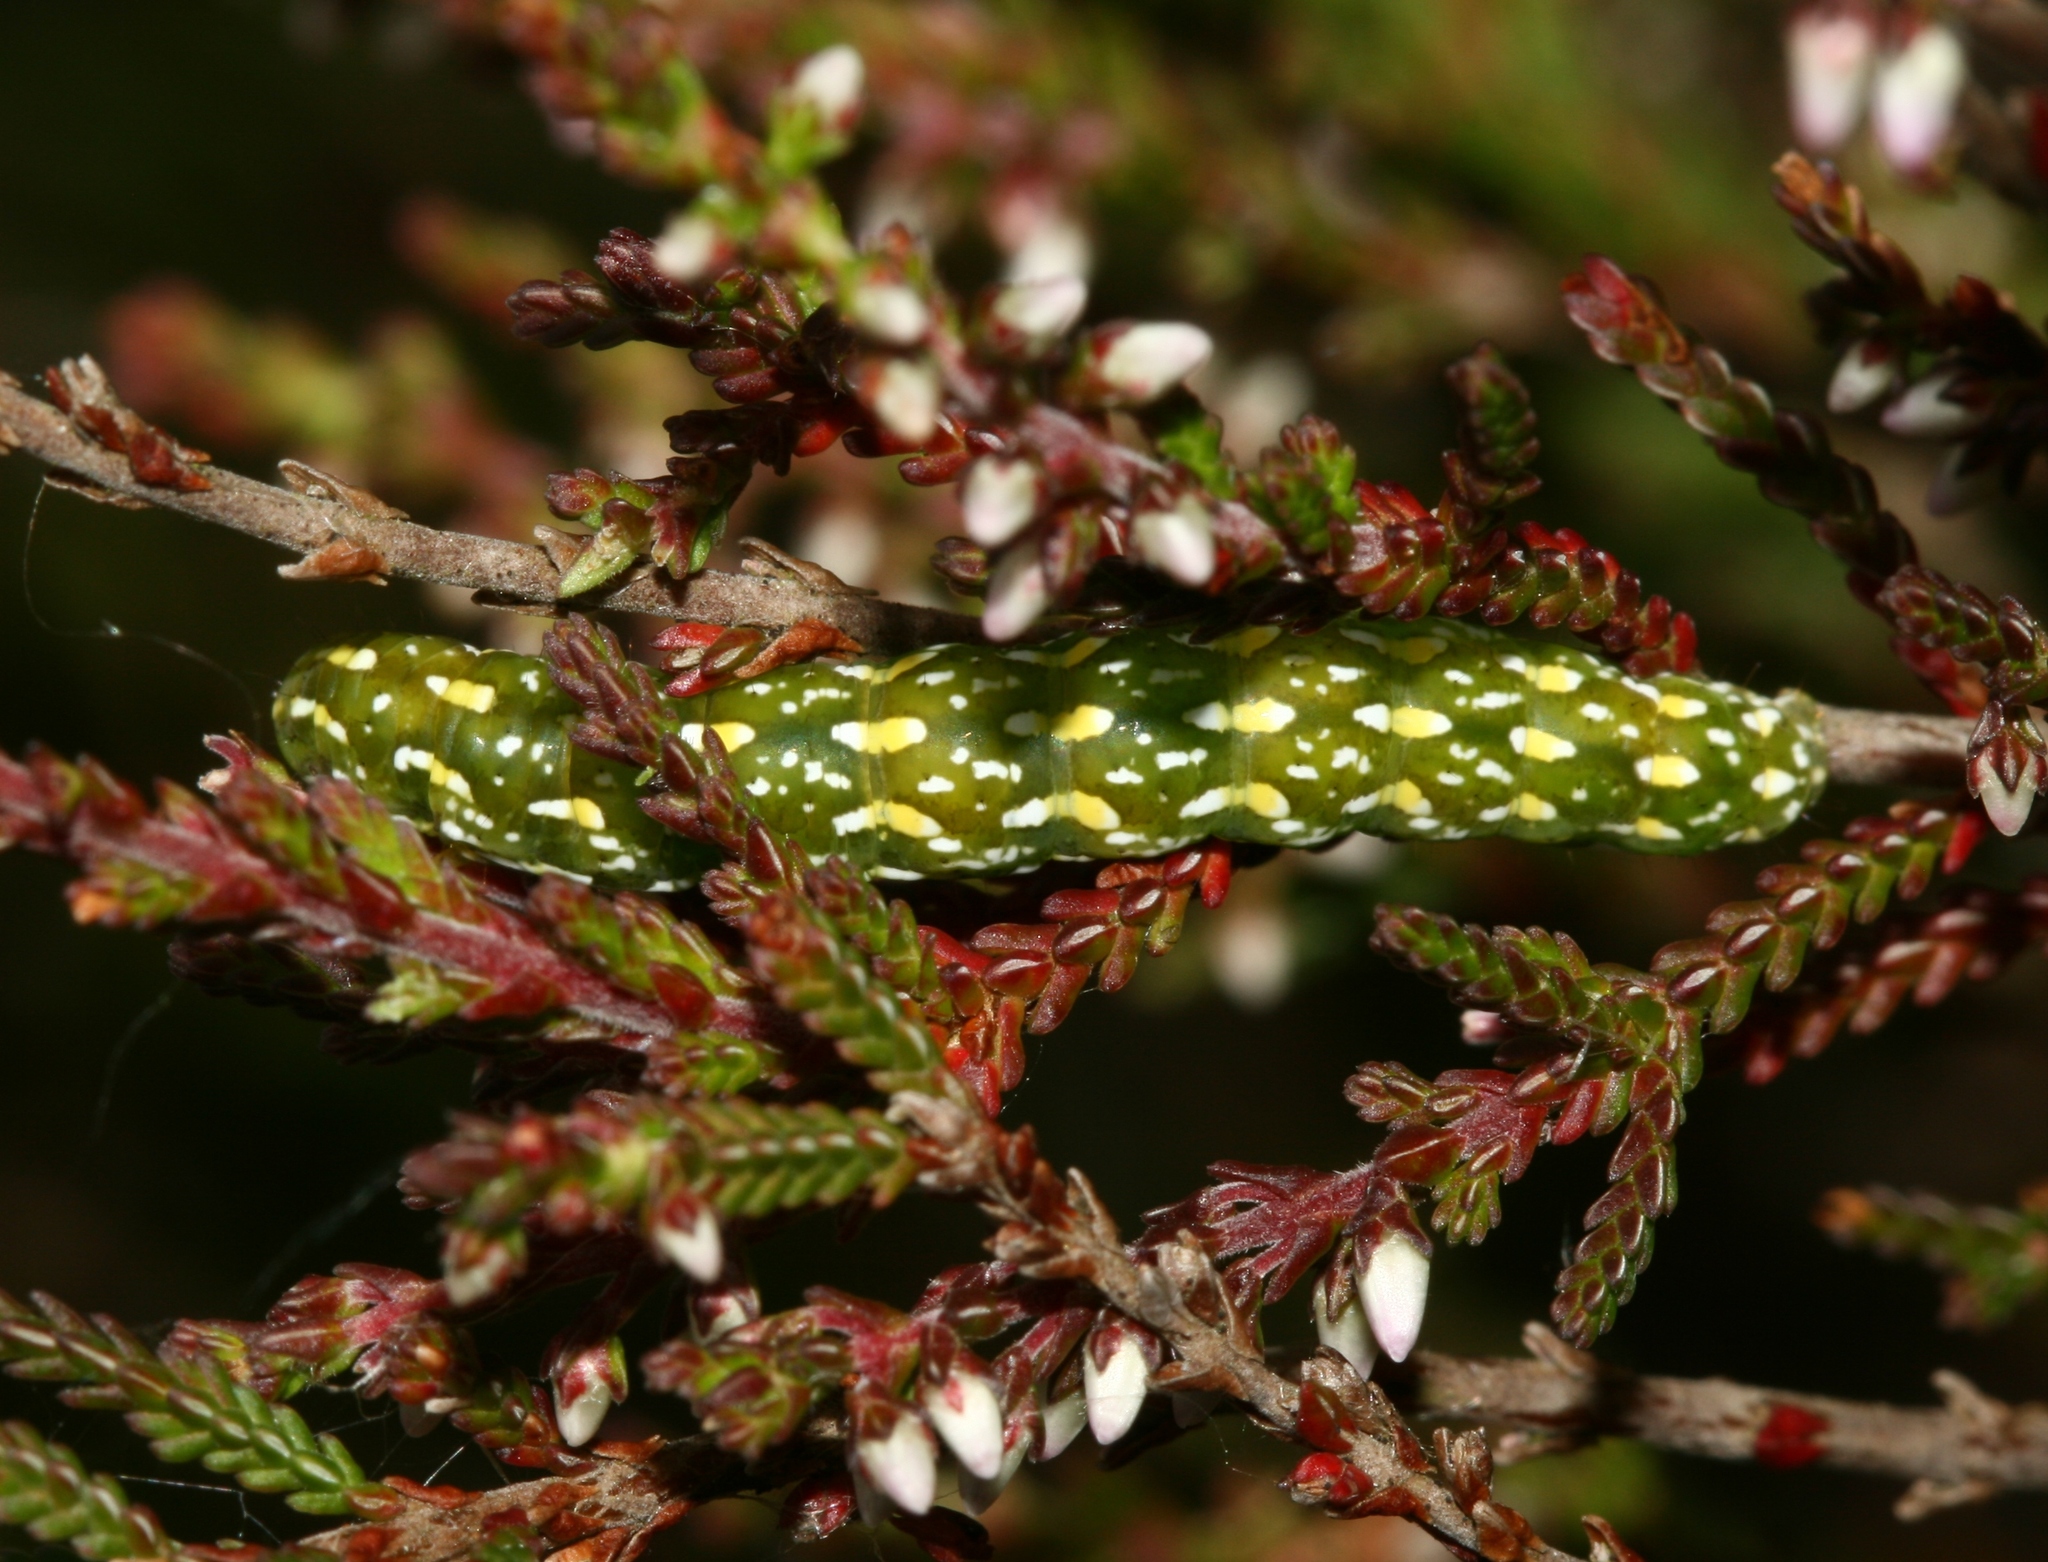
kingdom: Animalia
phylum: Arthropoda
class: Insecta
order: Lepidoptera
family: Noctuidae
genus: Anarta
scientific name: Anarta myrtilli
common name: Beautiful yellow underwing
